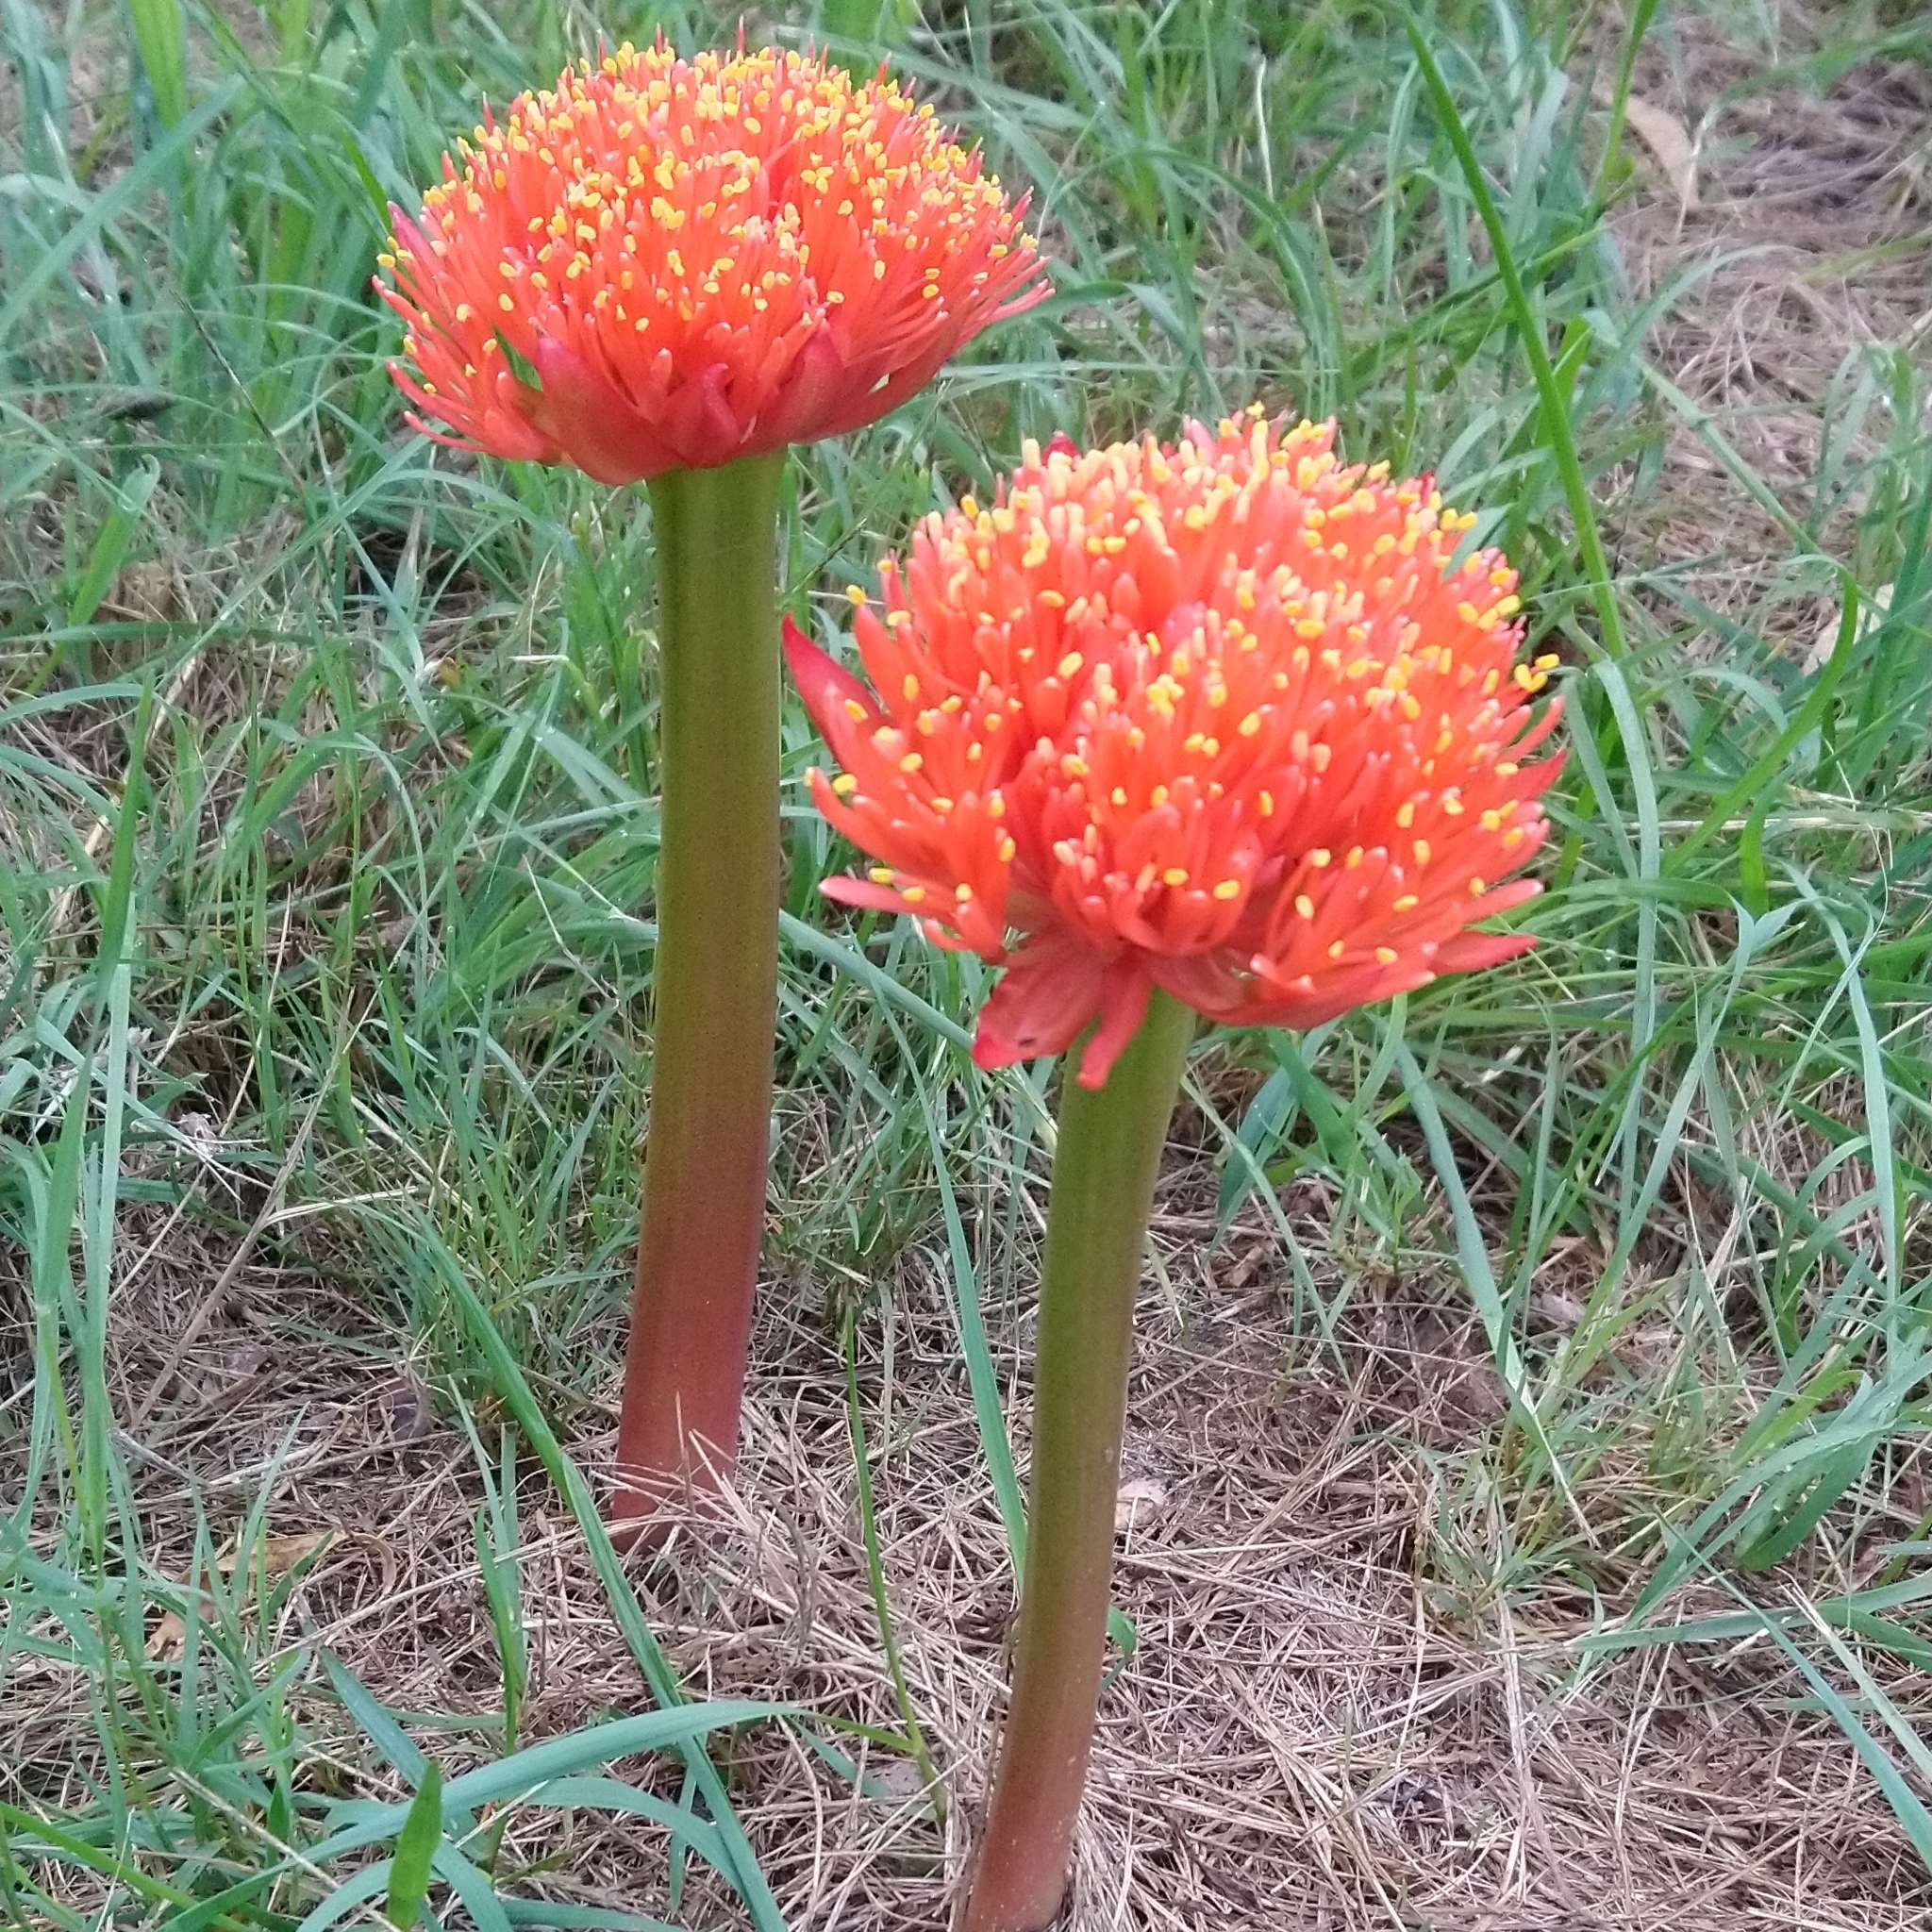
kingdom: Plantae
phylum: Tracheophyta
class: Liliopsida
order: Asparagales
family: Amaryllidaceae
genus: Haemanthus
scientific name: Haemanthus sanguineus
